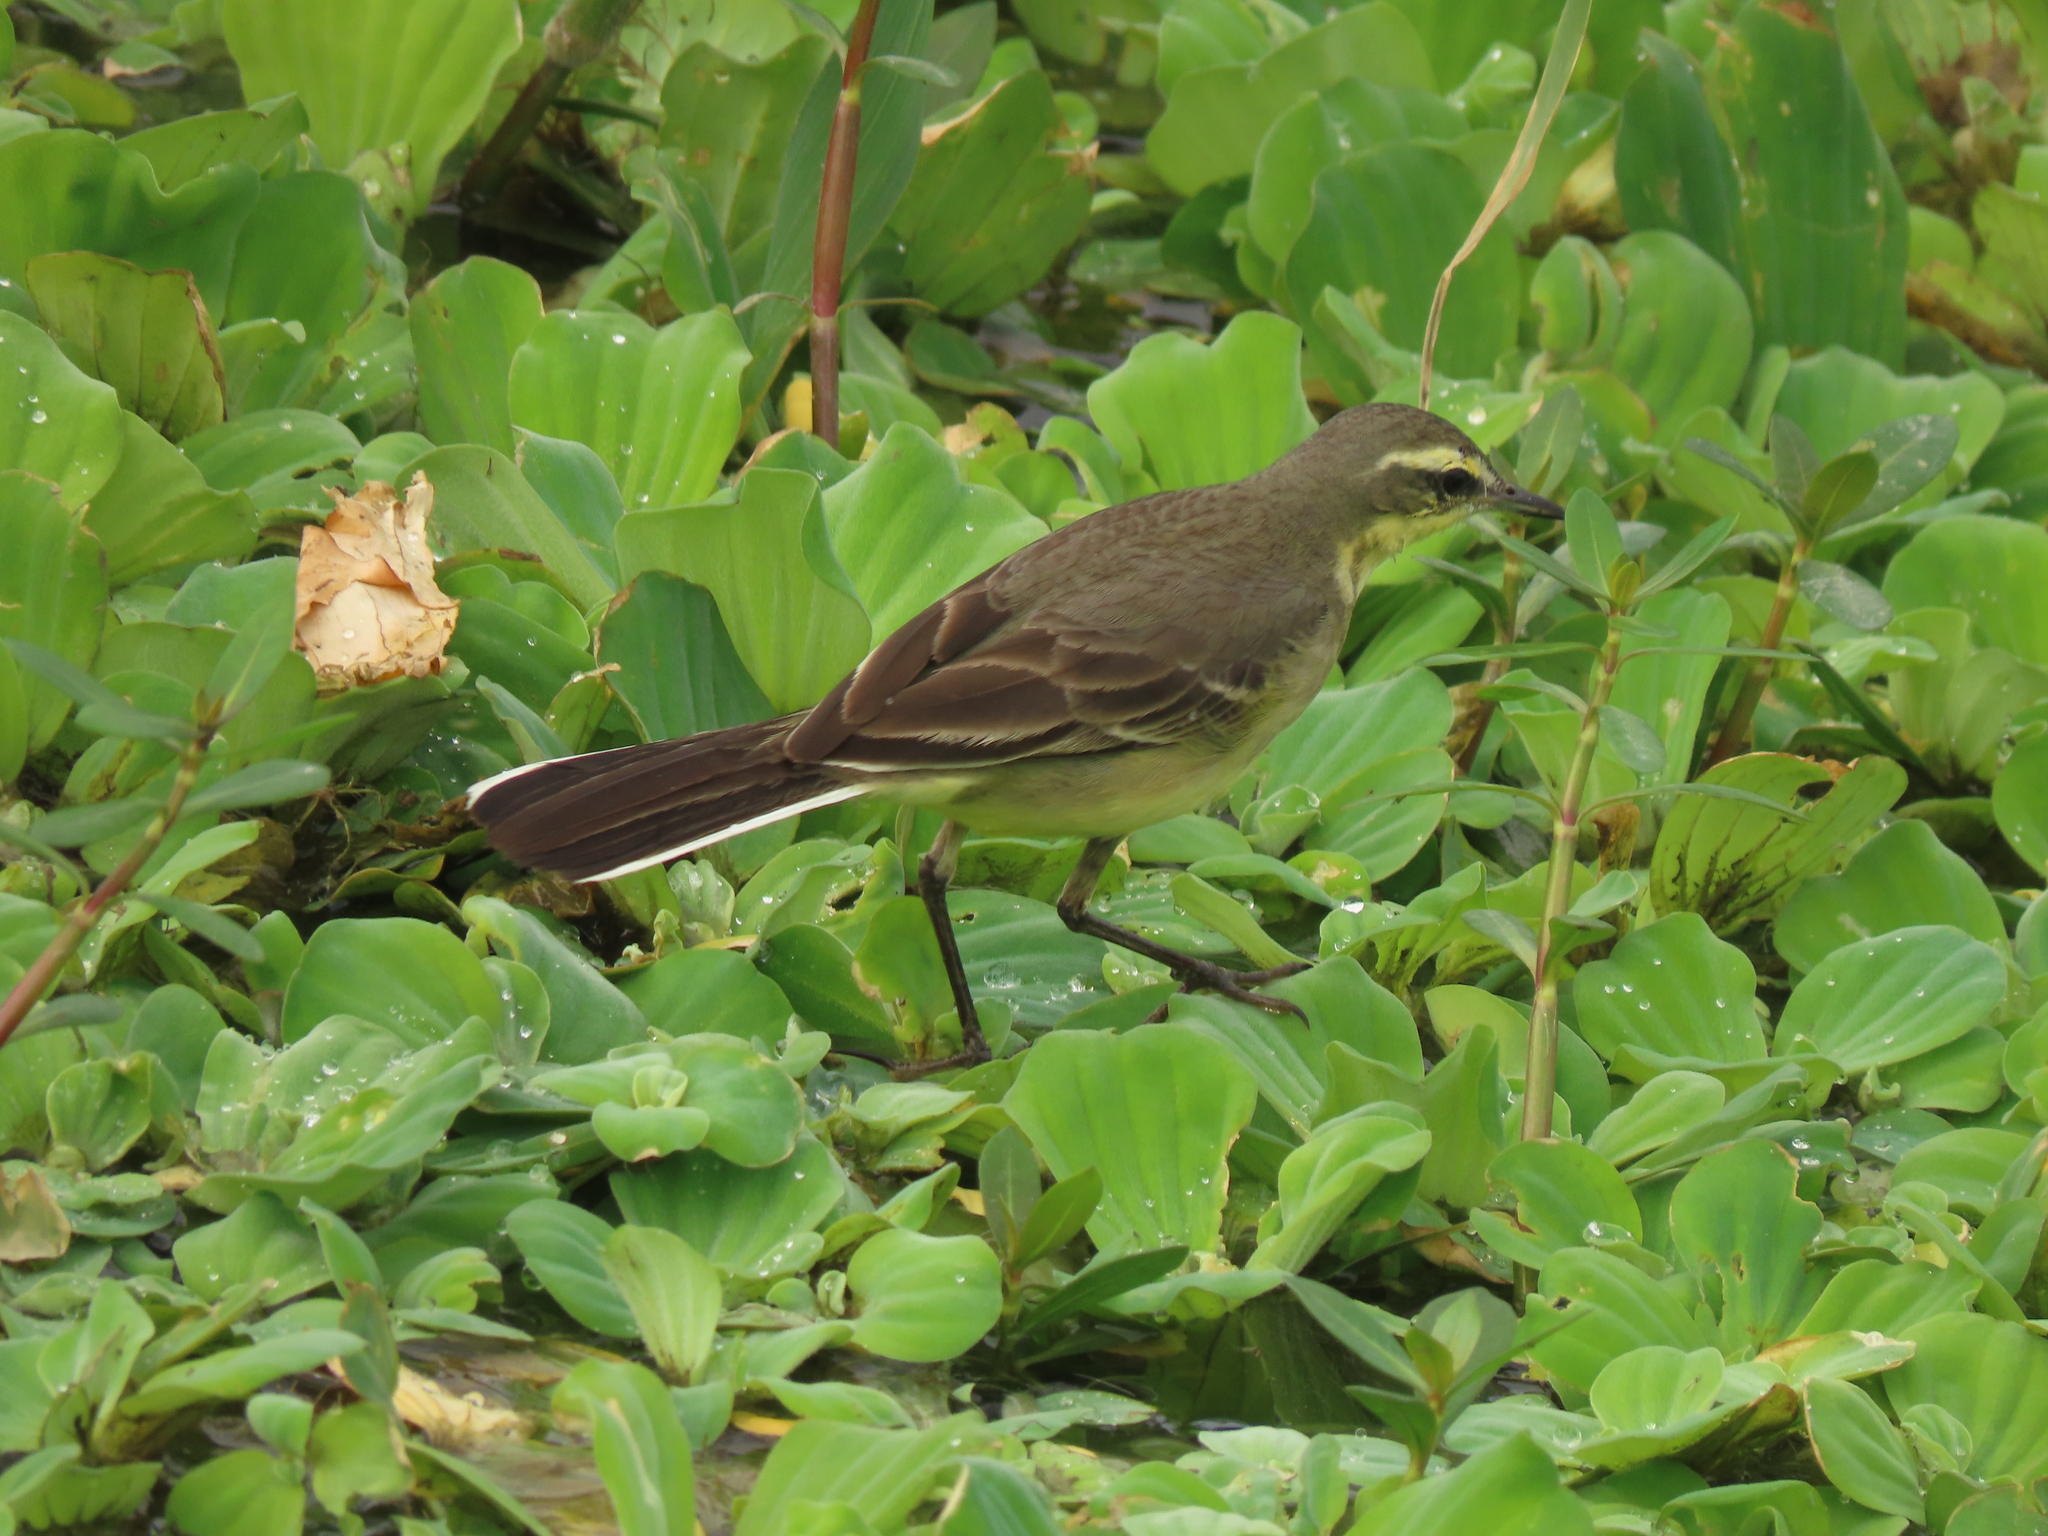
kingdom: Animalia
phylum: Chordata
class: Aves
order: Passeriformes
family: Motacillidae
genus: Motacilla
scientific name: Motacilla tschutschensis
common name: Eastern yellow wagtail
